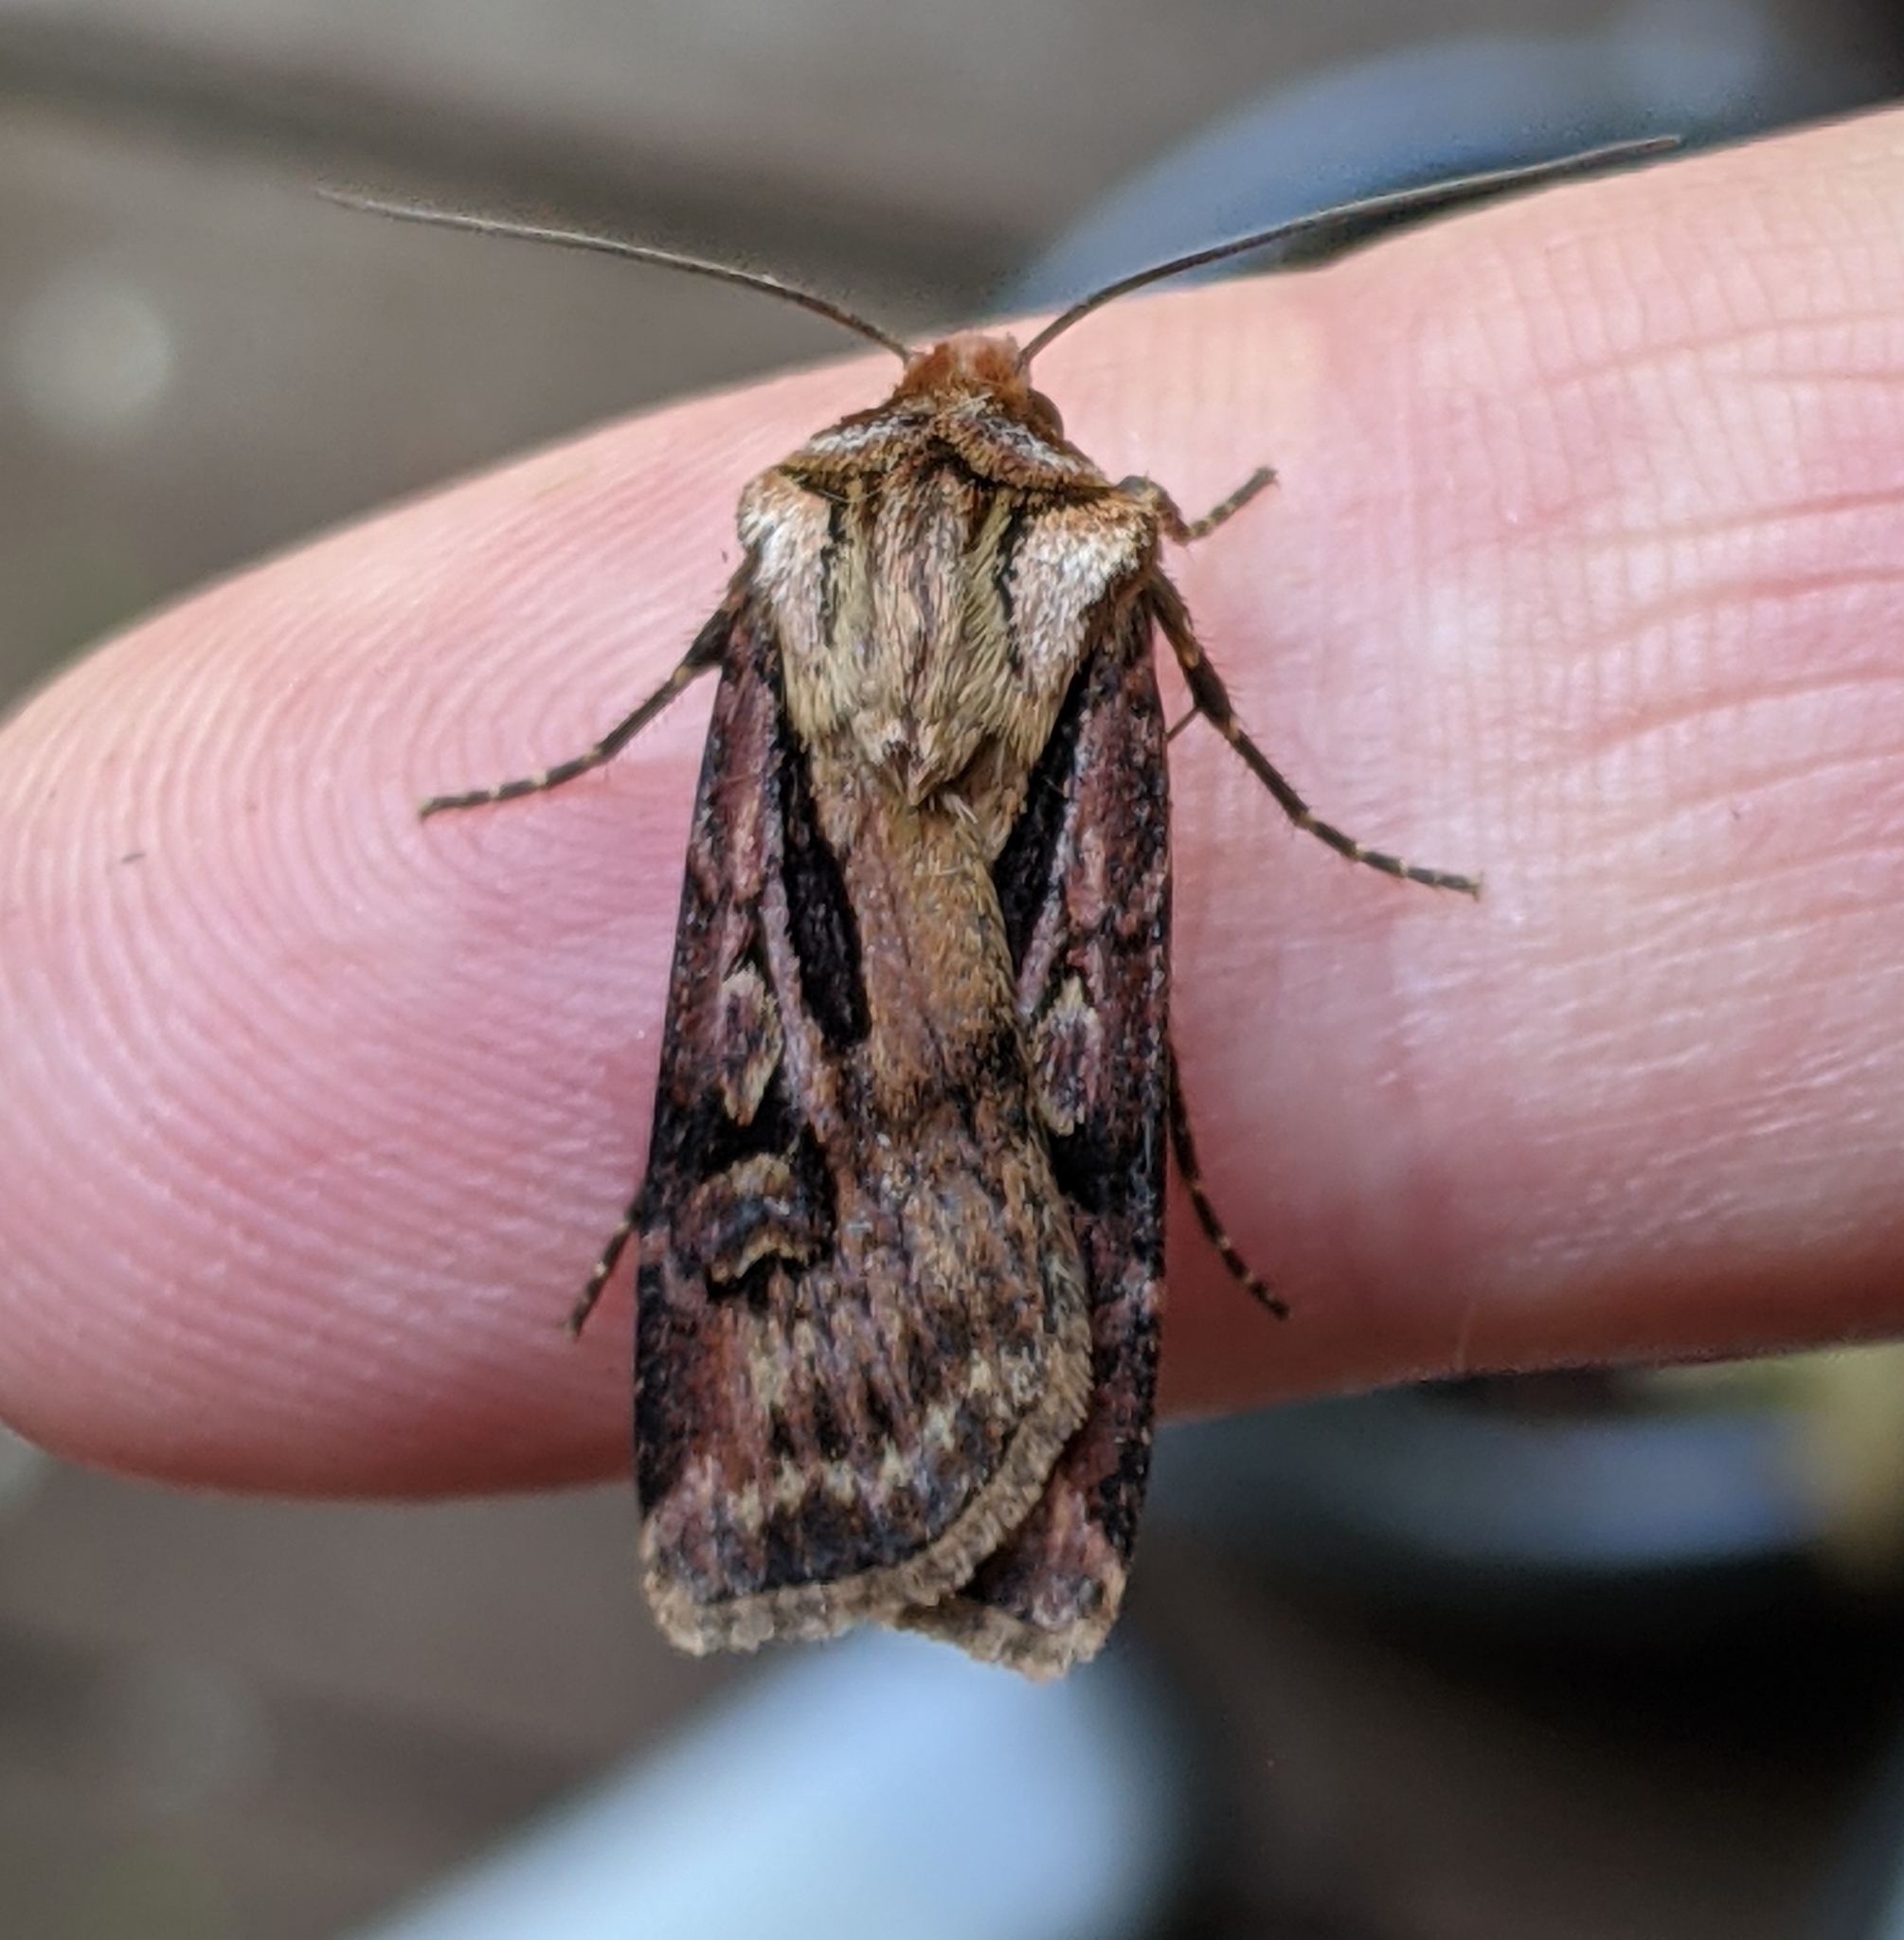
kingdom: Animalia
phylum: Arthropoda
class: Insecta
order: Lepidoptera
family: Noctuidae
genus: Agrotis
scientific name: Agrotis vancouverensis
